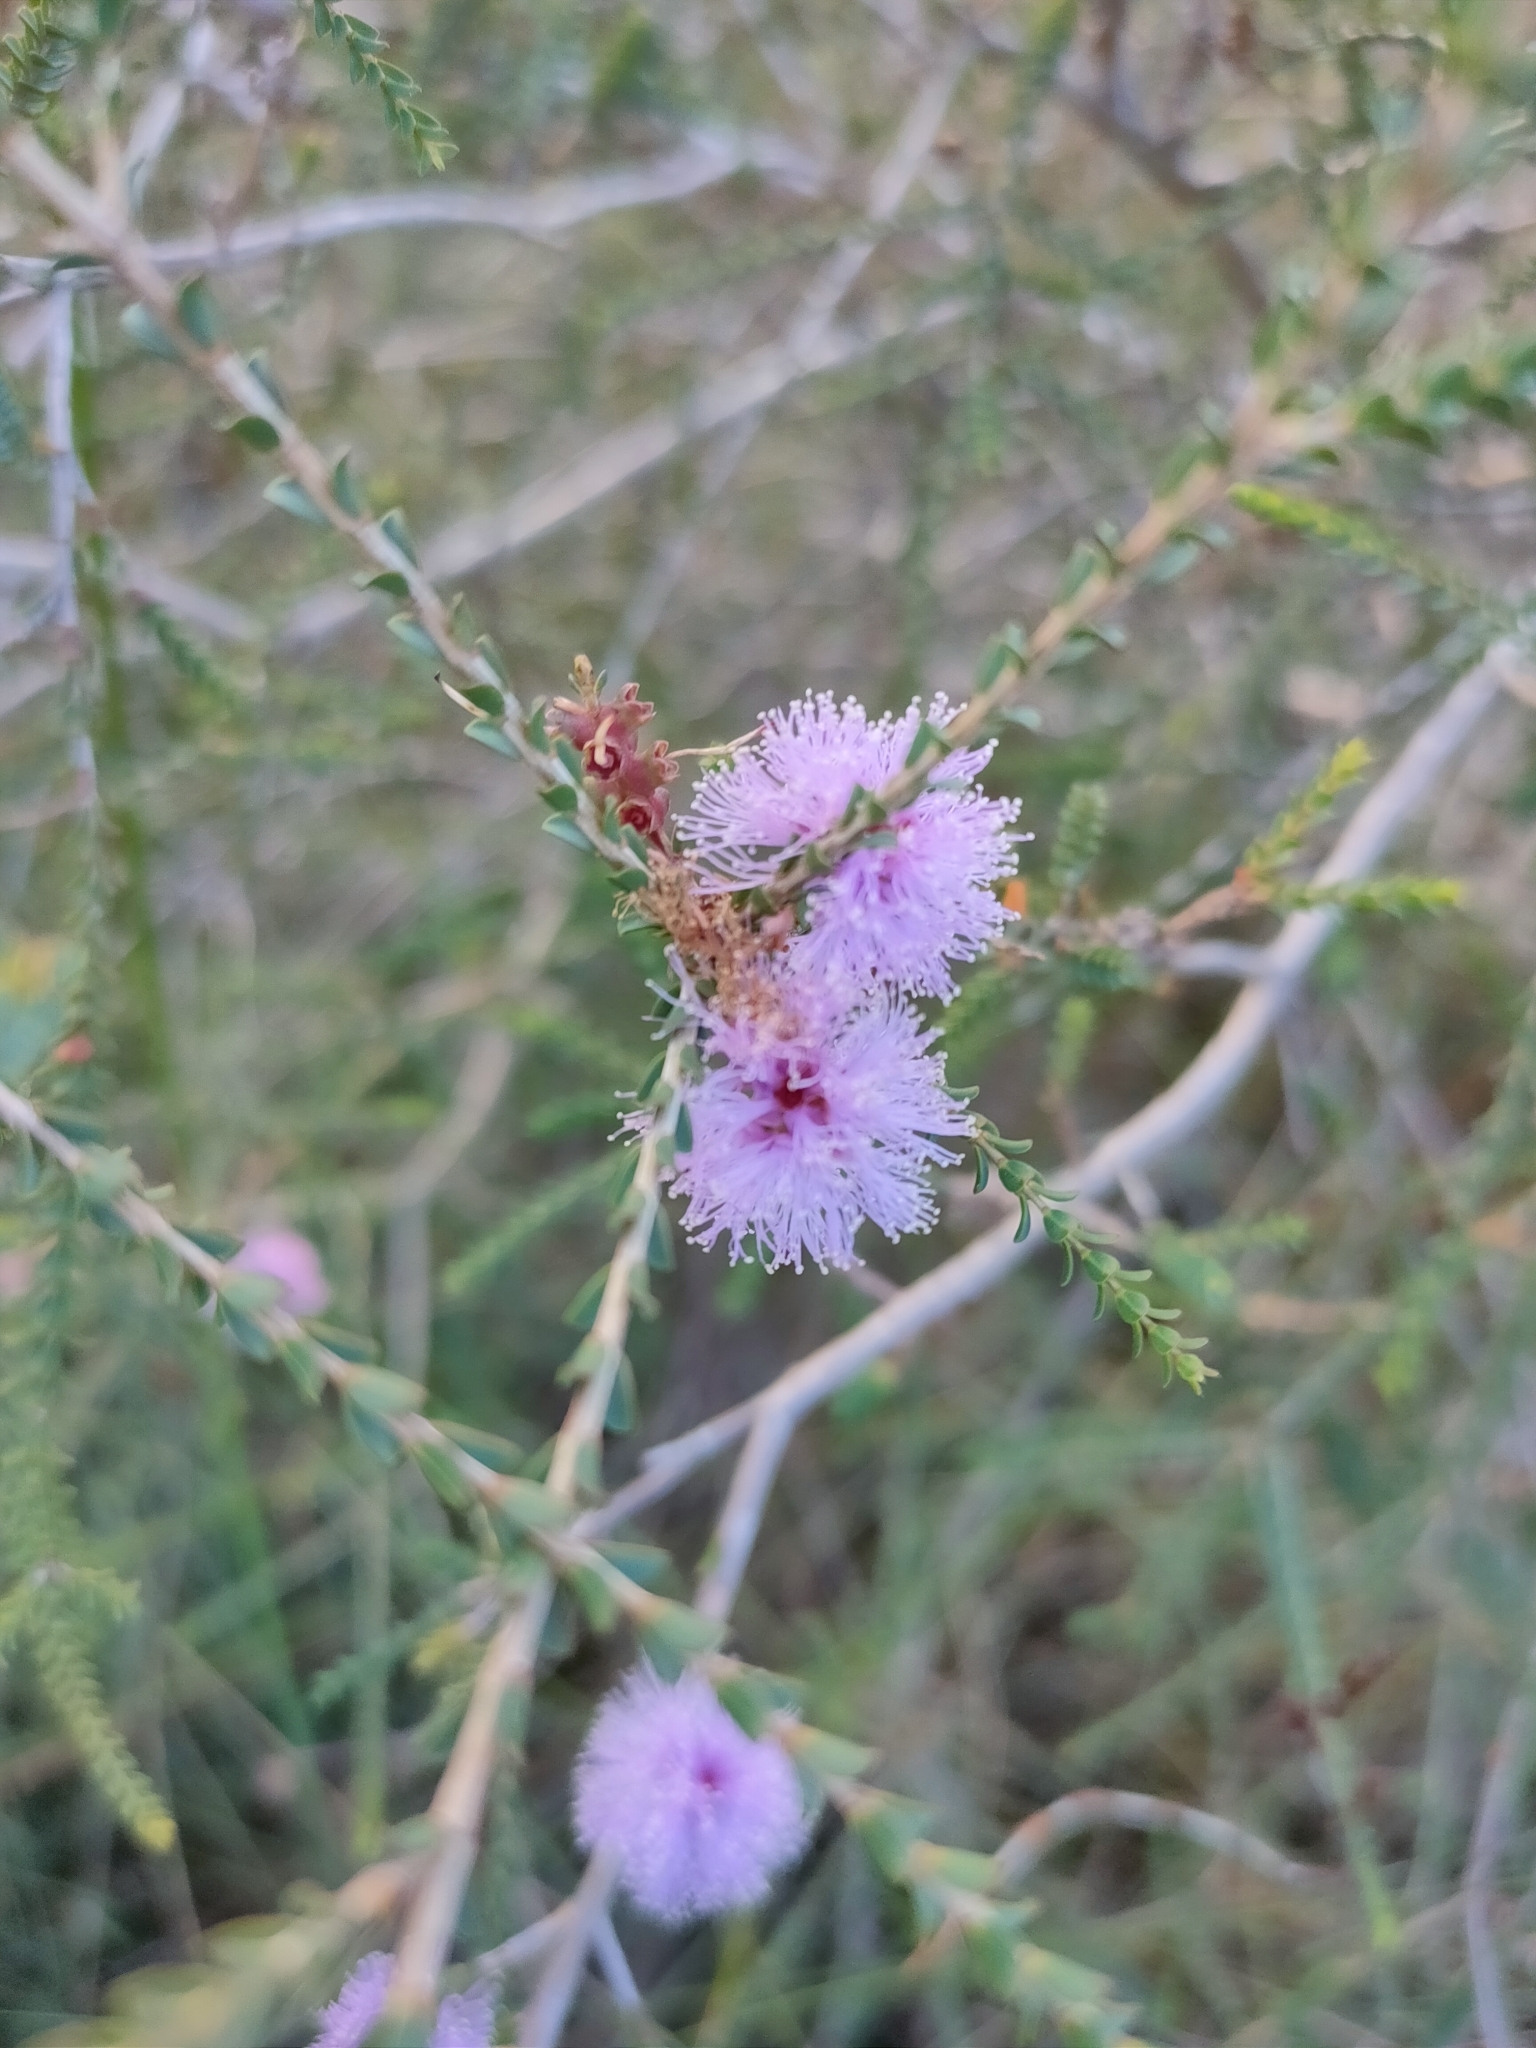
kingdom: Plantae
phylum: Tracheophyta
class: Magnoliopsida
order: Myrtales
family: Myrtaceae
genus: Melaleuca
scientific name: Melaleuca gibbosa
